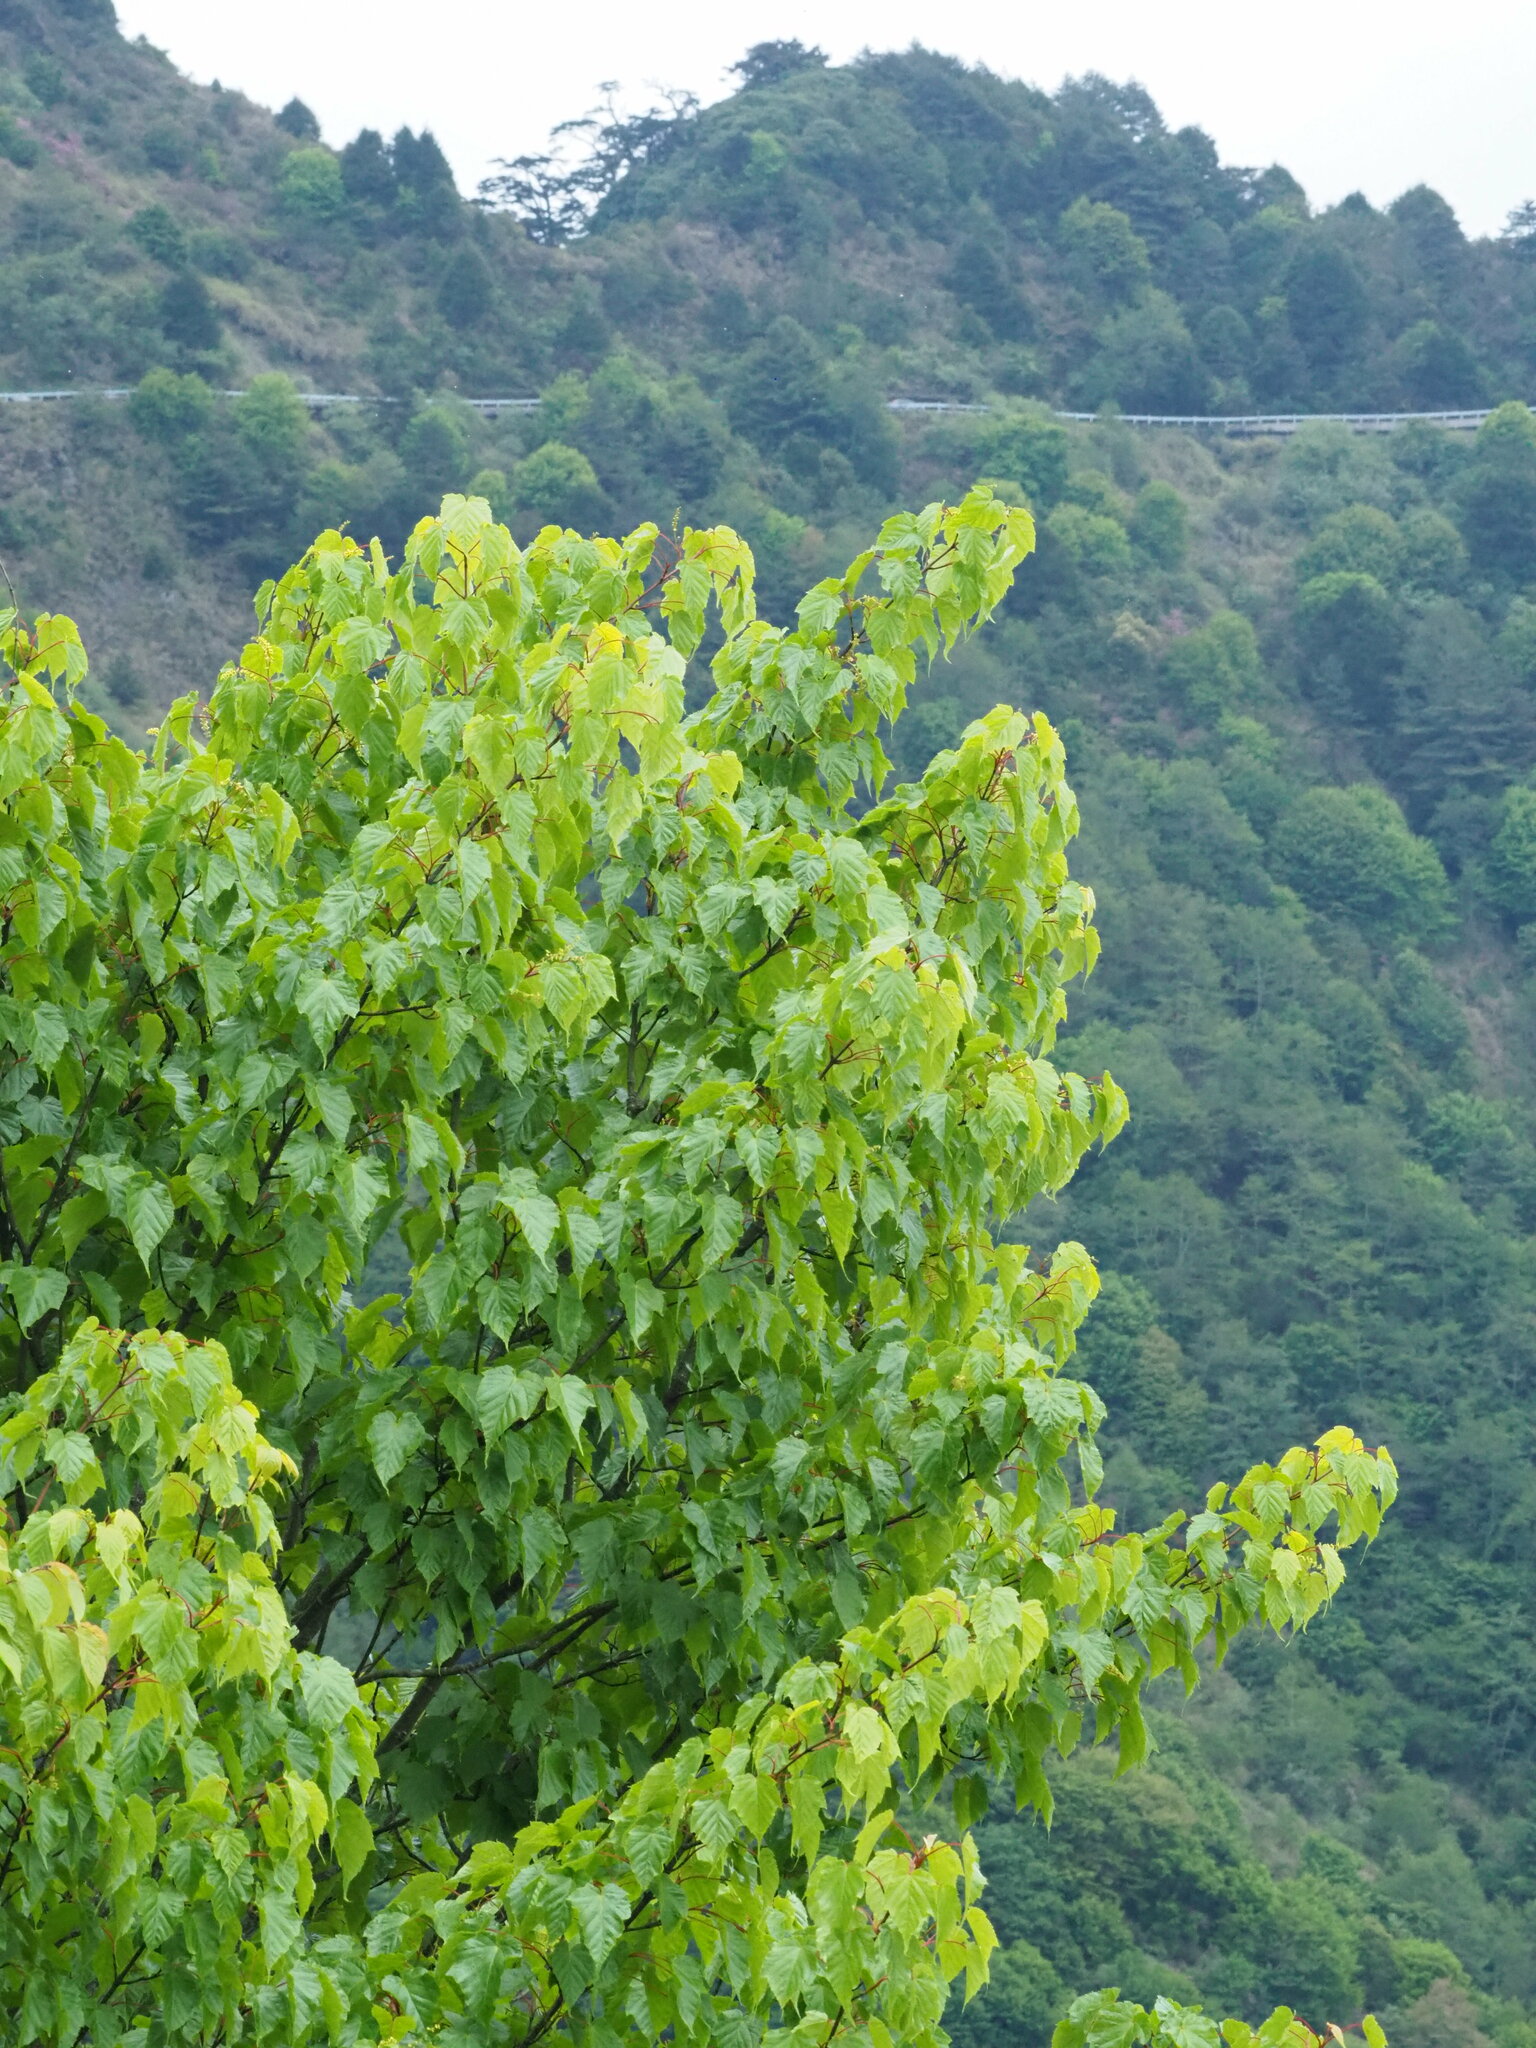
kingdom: Plantae
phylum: Tracheophyta
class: Magnoliopsida
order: Sapindales
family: Sapindaceae
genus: Acer
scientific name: Acer caudatifolium
